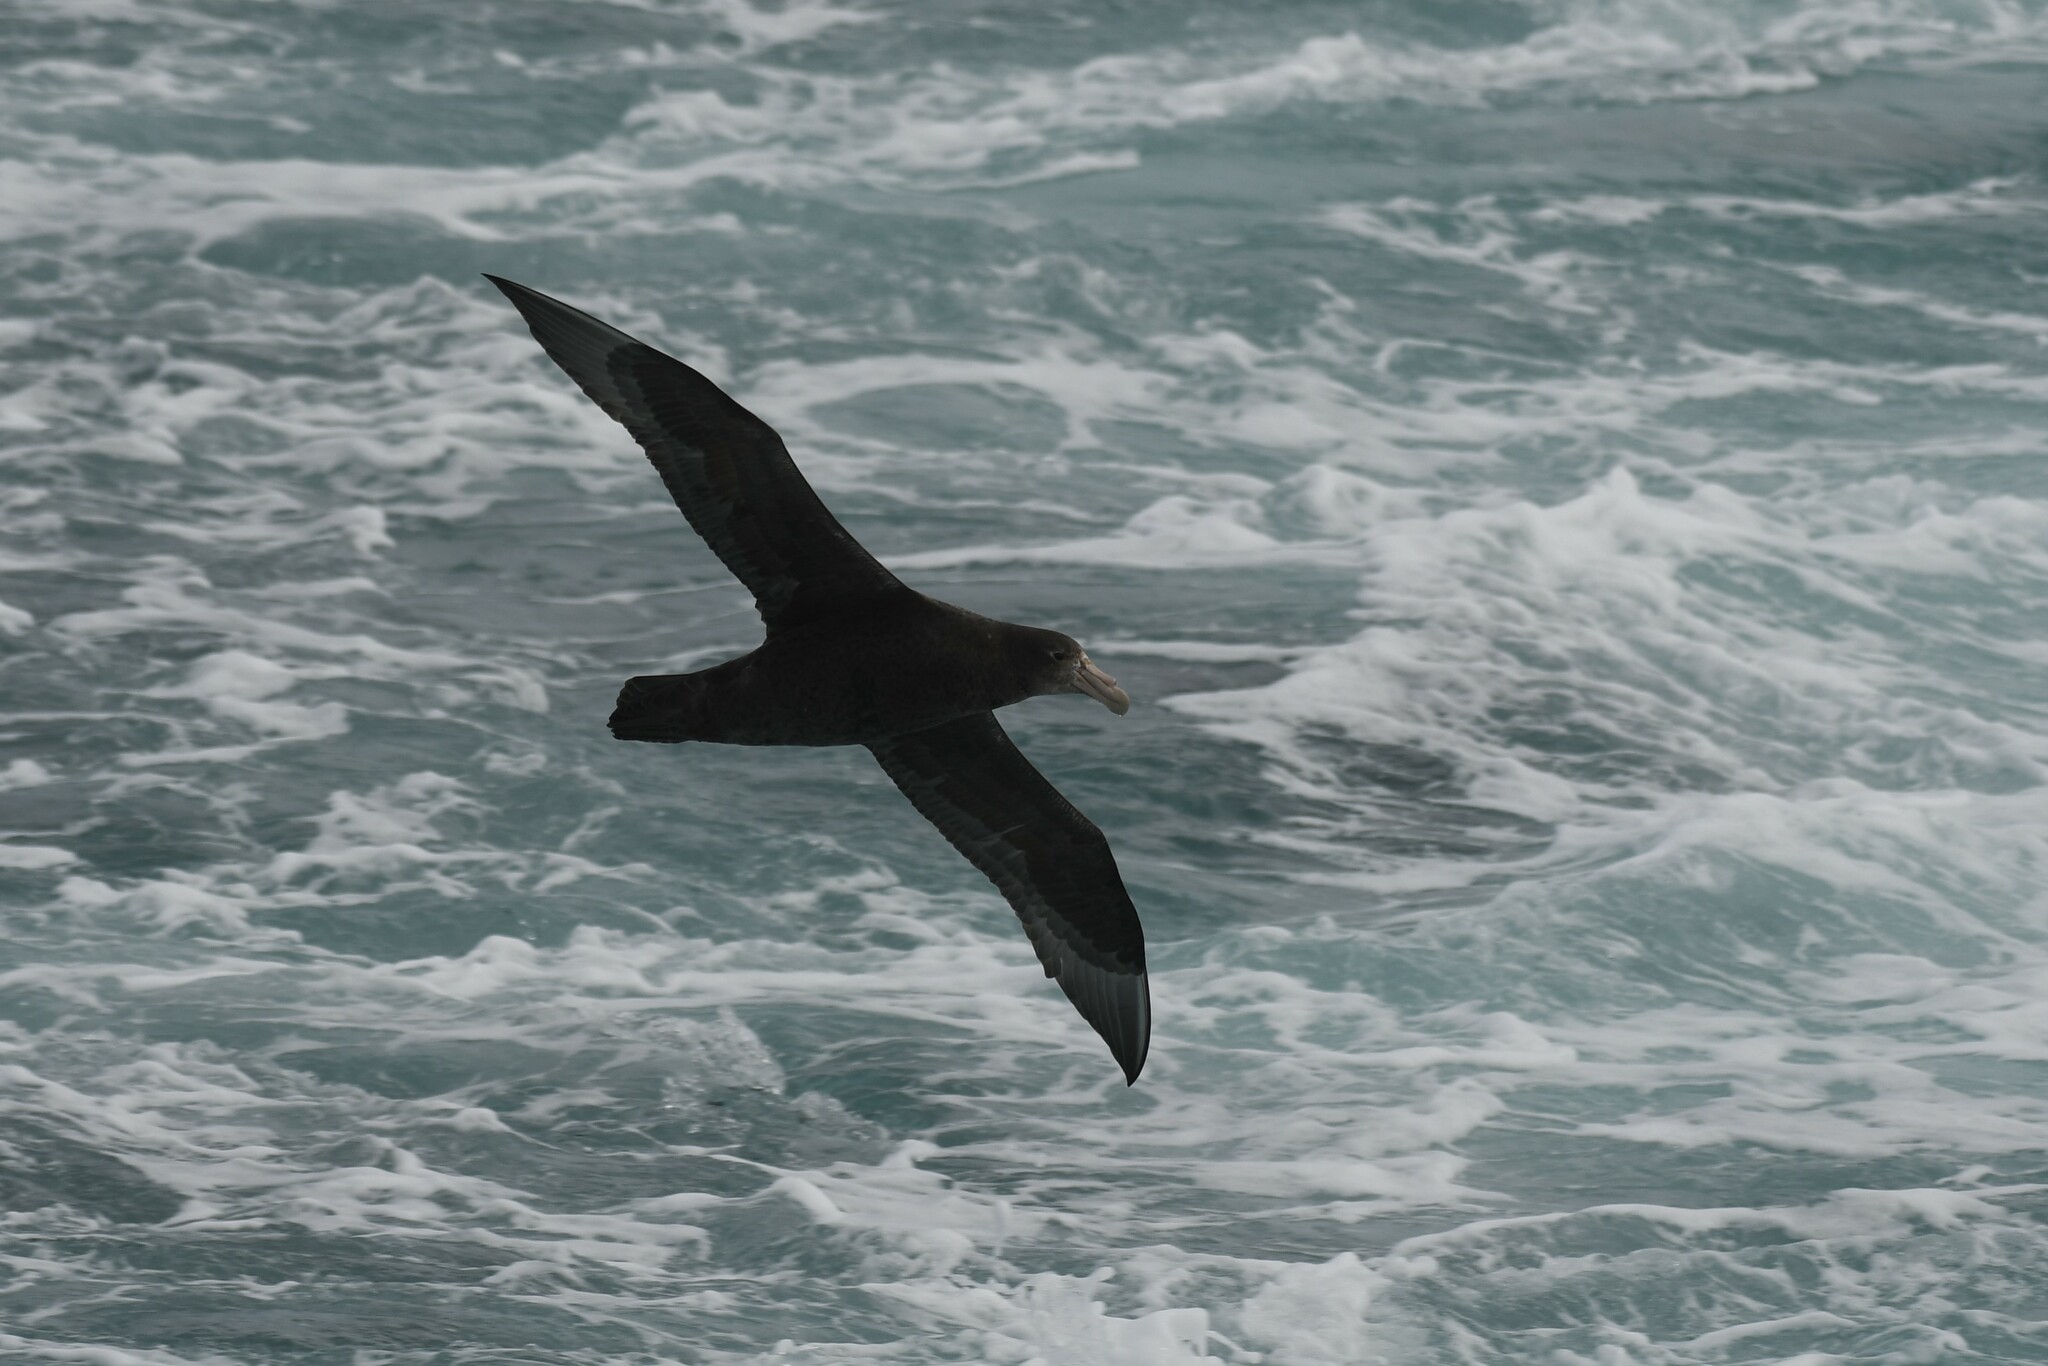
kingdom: Animalia
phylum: Chordata
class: Aves
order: Procellariiformes
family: Procellariidae
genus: Macronectes
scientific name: Macronectes giganteus
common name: Southern giant petrel
